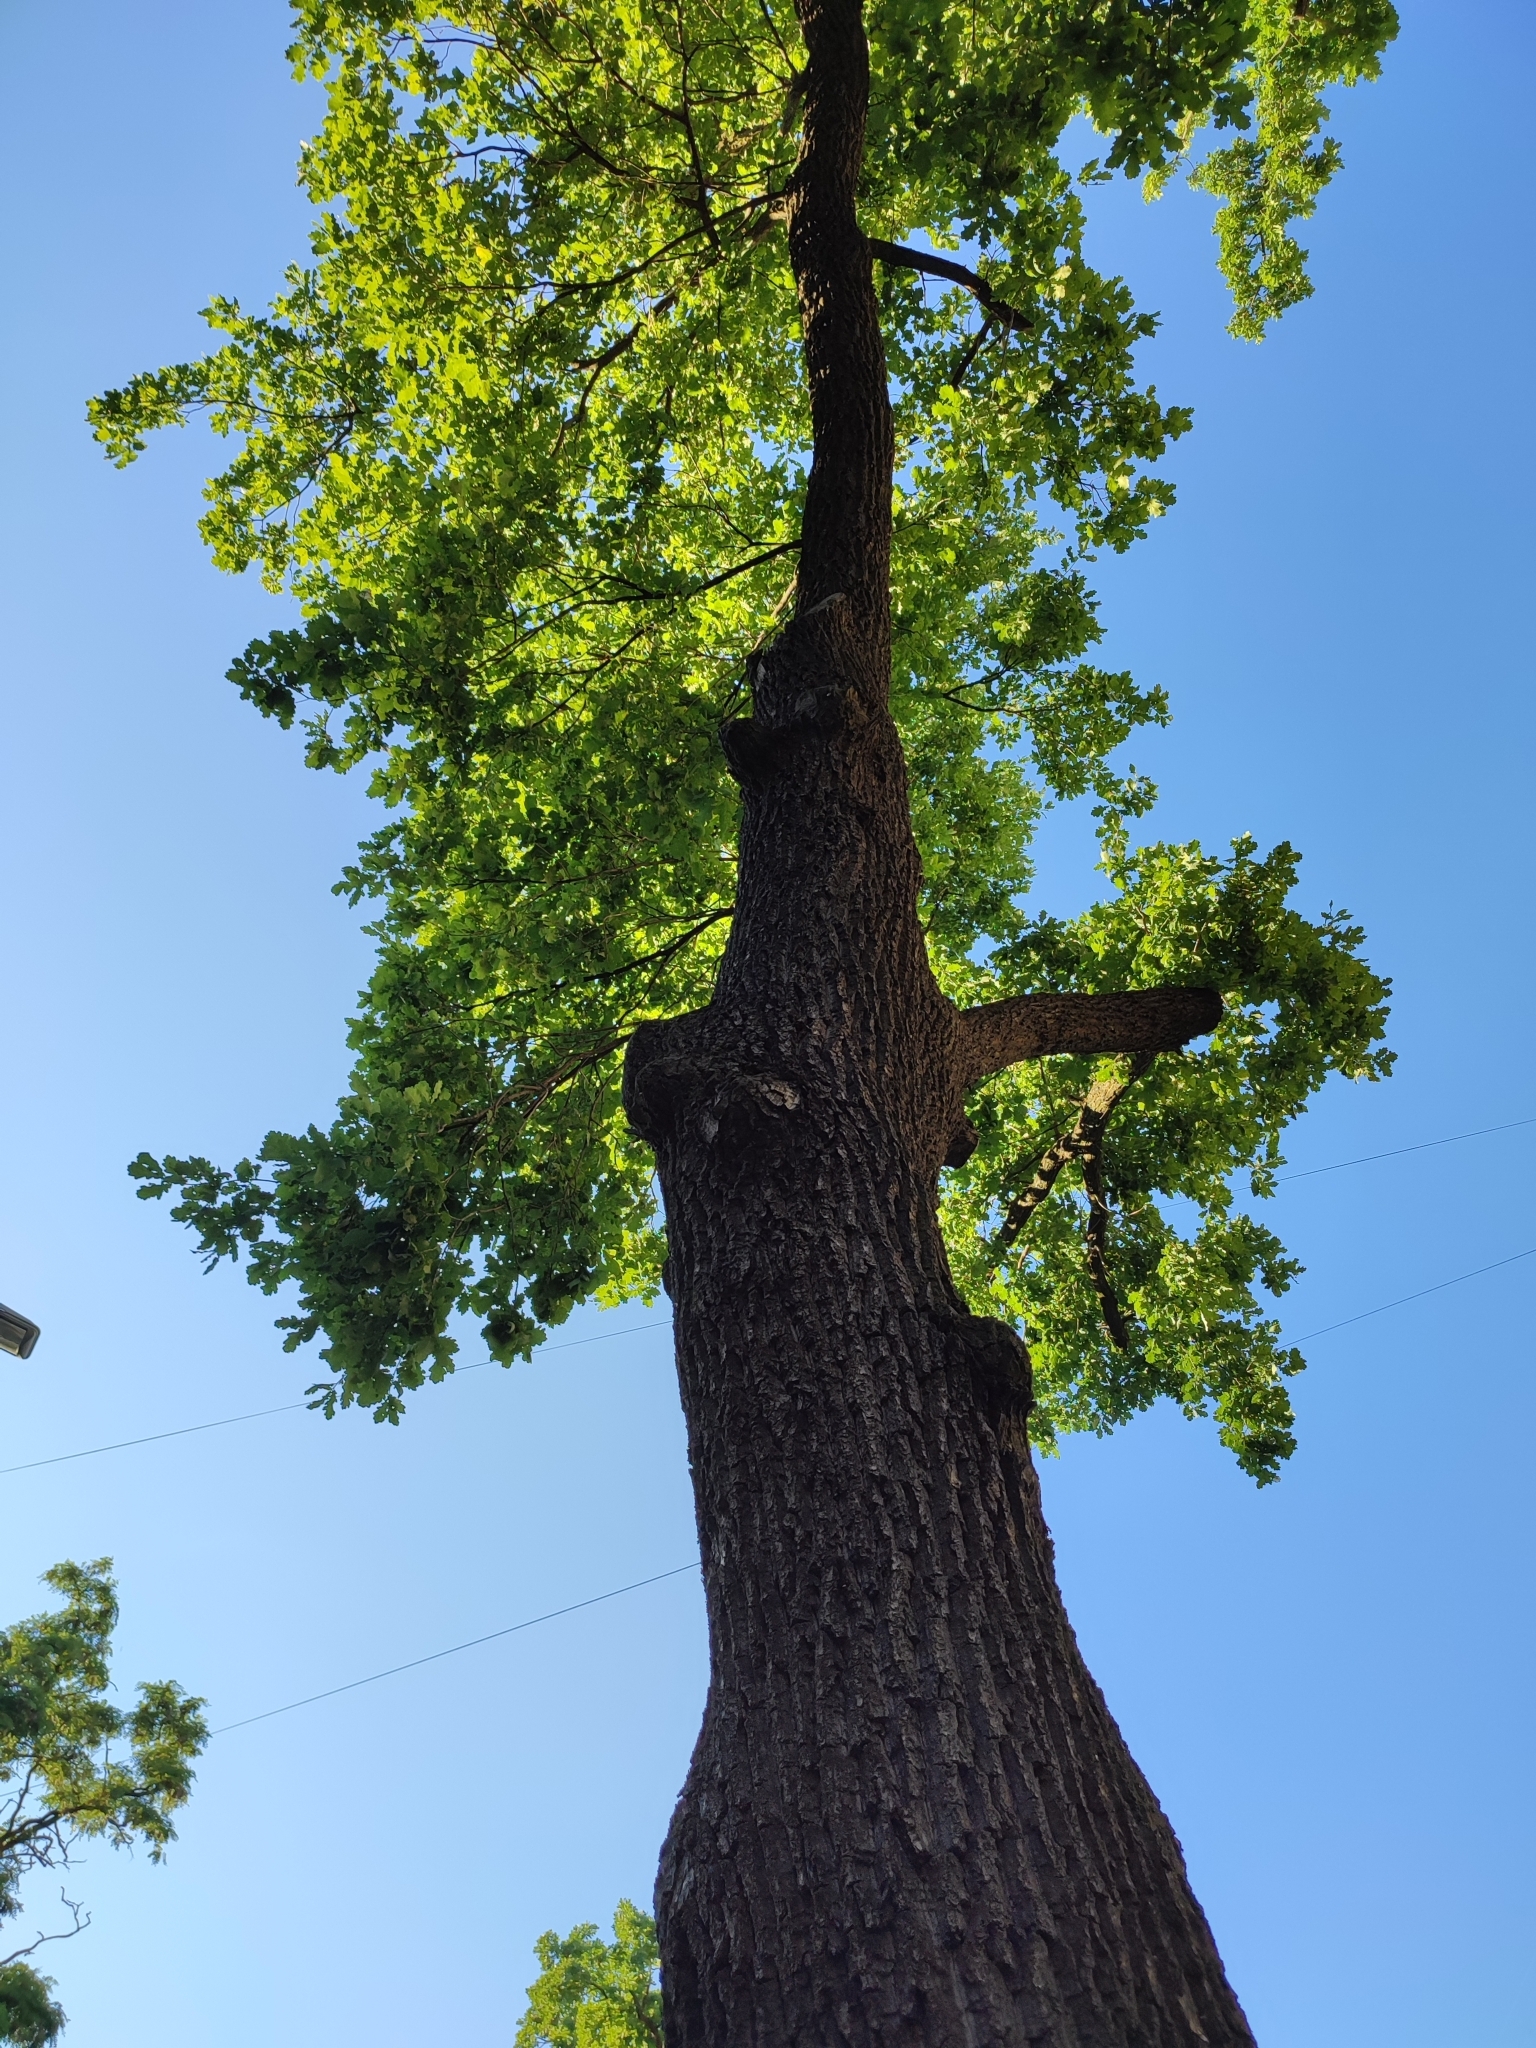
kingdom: Plantae
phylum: Tracheophyta
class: Magnoliopsida
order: Fagales
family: Fagaceae
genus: Quercus
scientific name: Quercus robur
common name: Pedunculate oak
